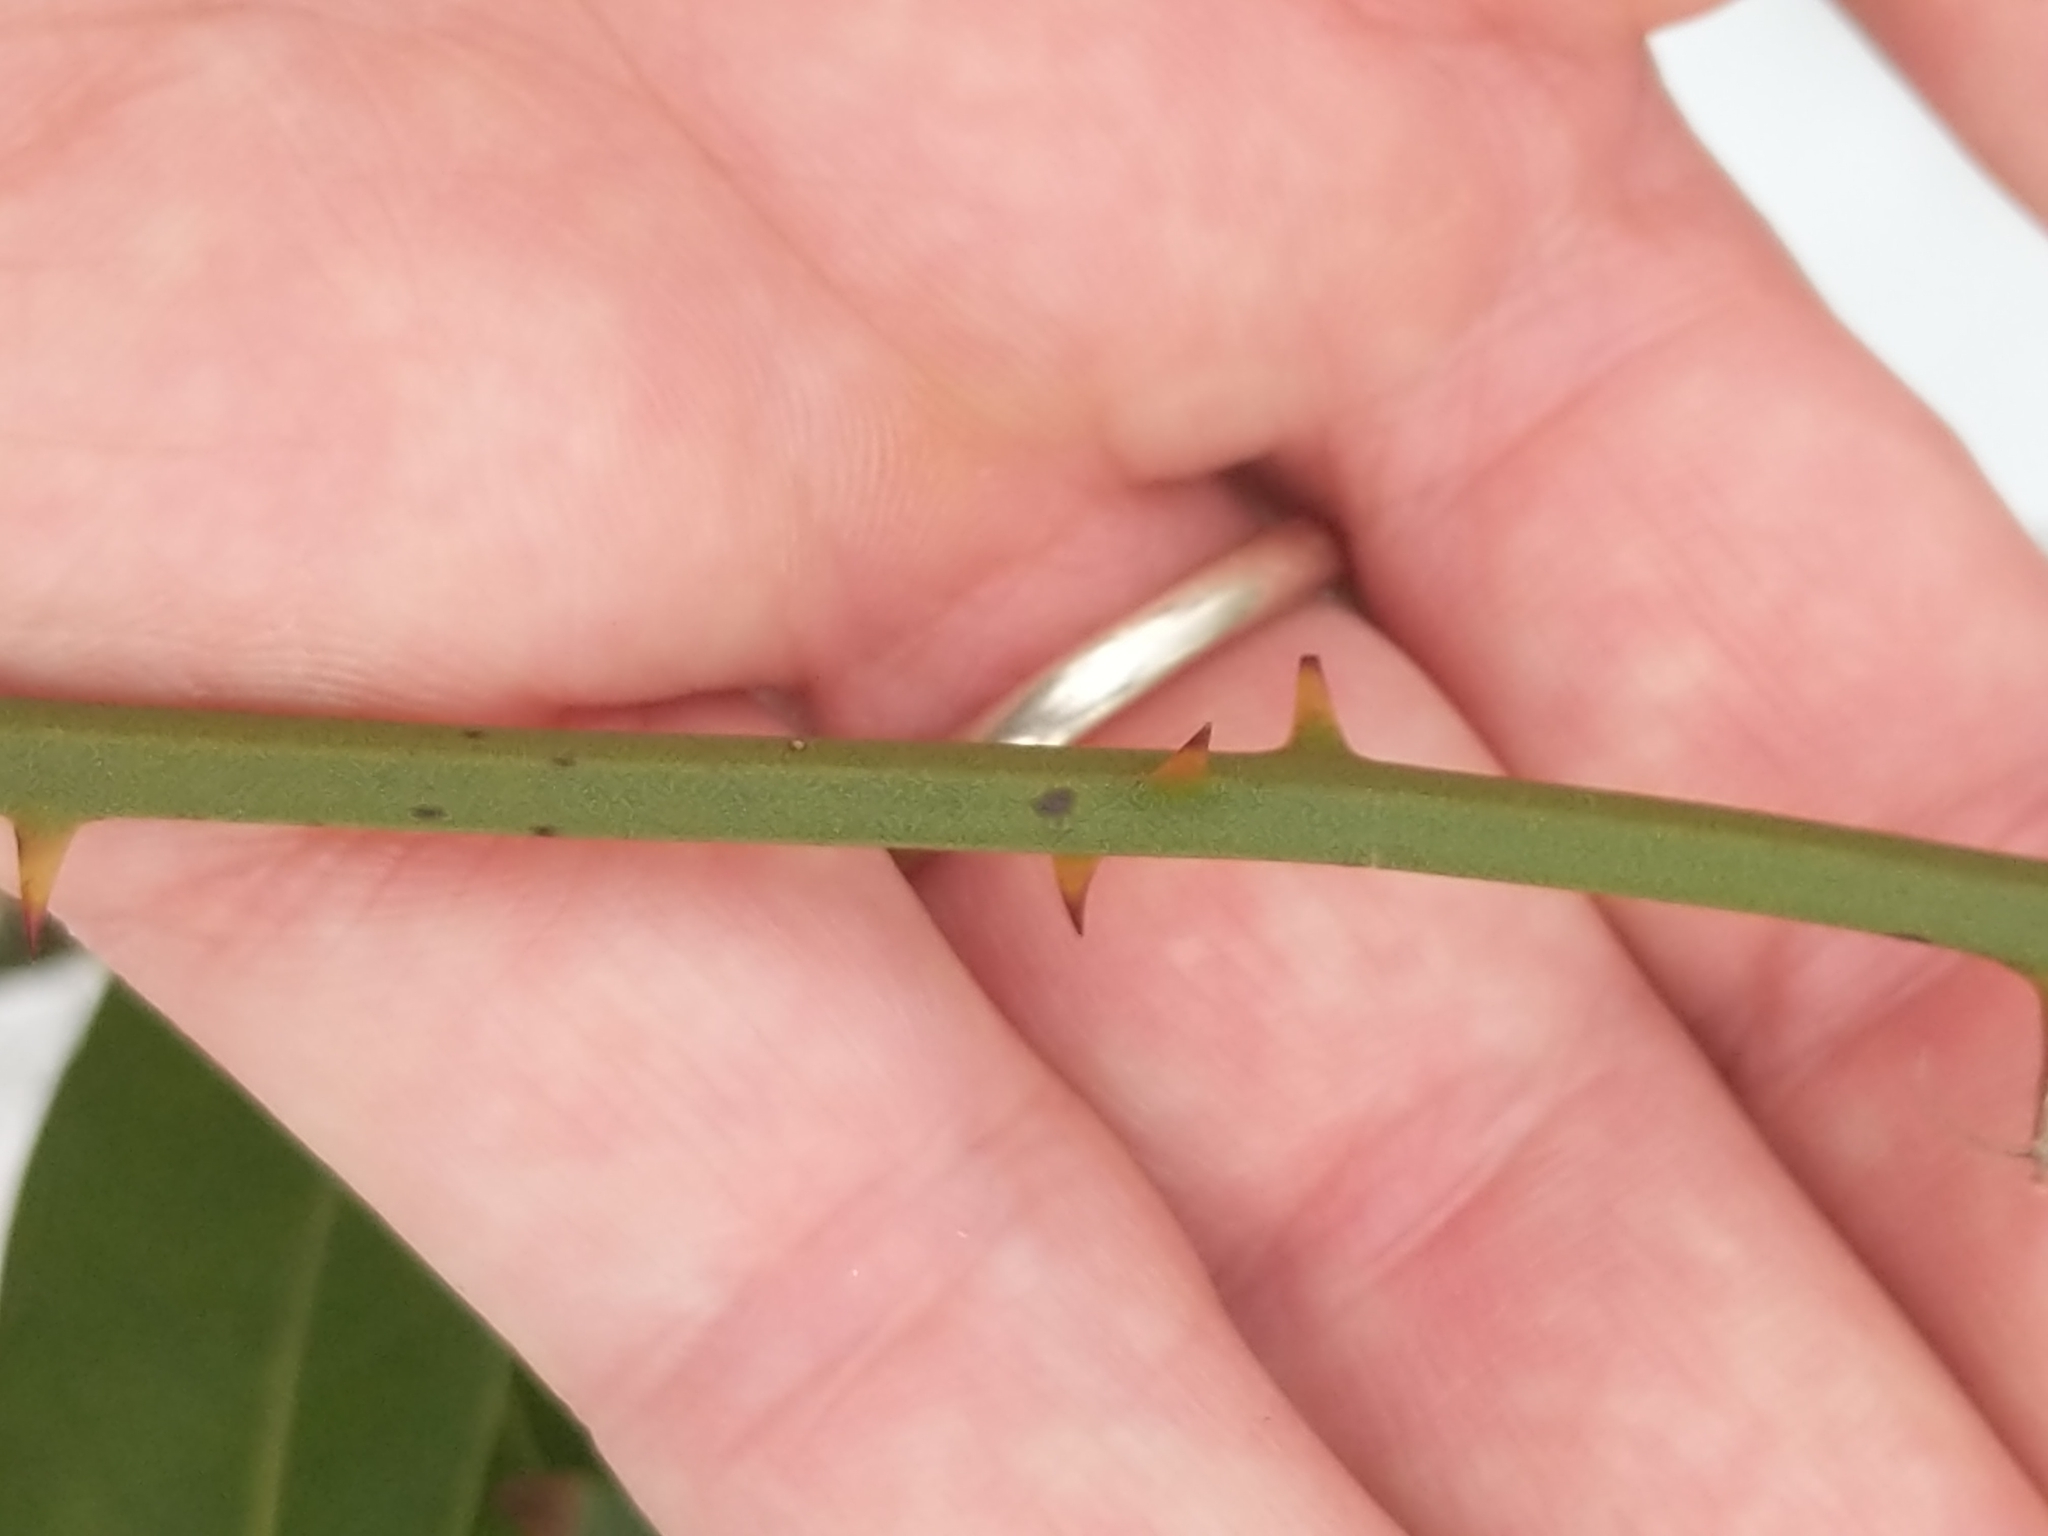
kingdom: Plantae
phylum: Tracheophyta
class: Liliopsida
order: Liliales
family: Smilacaceae
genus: Smilax
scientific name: Smilax rotundifolia
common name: Bullbriar
